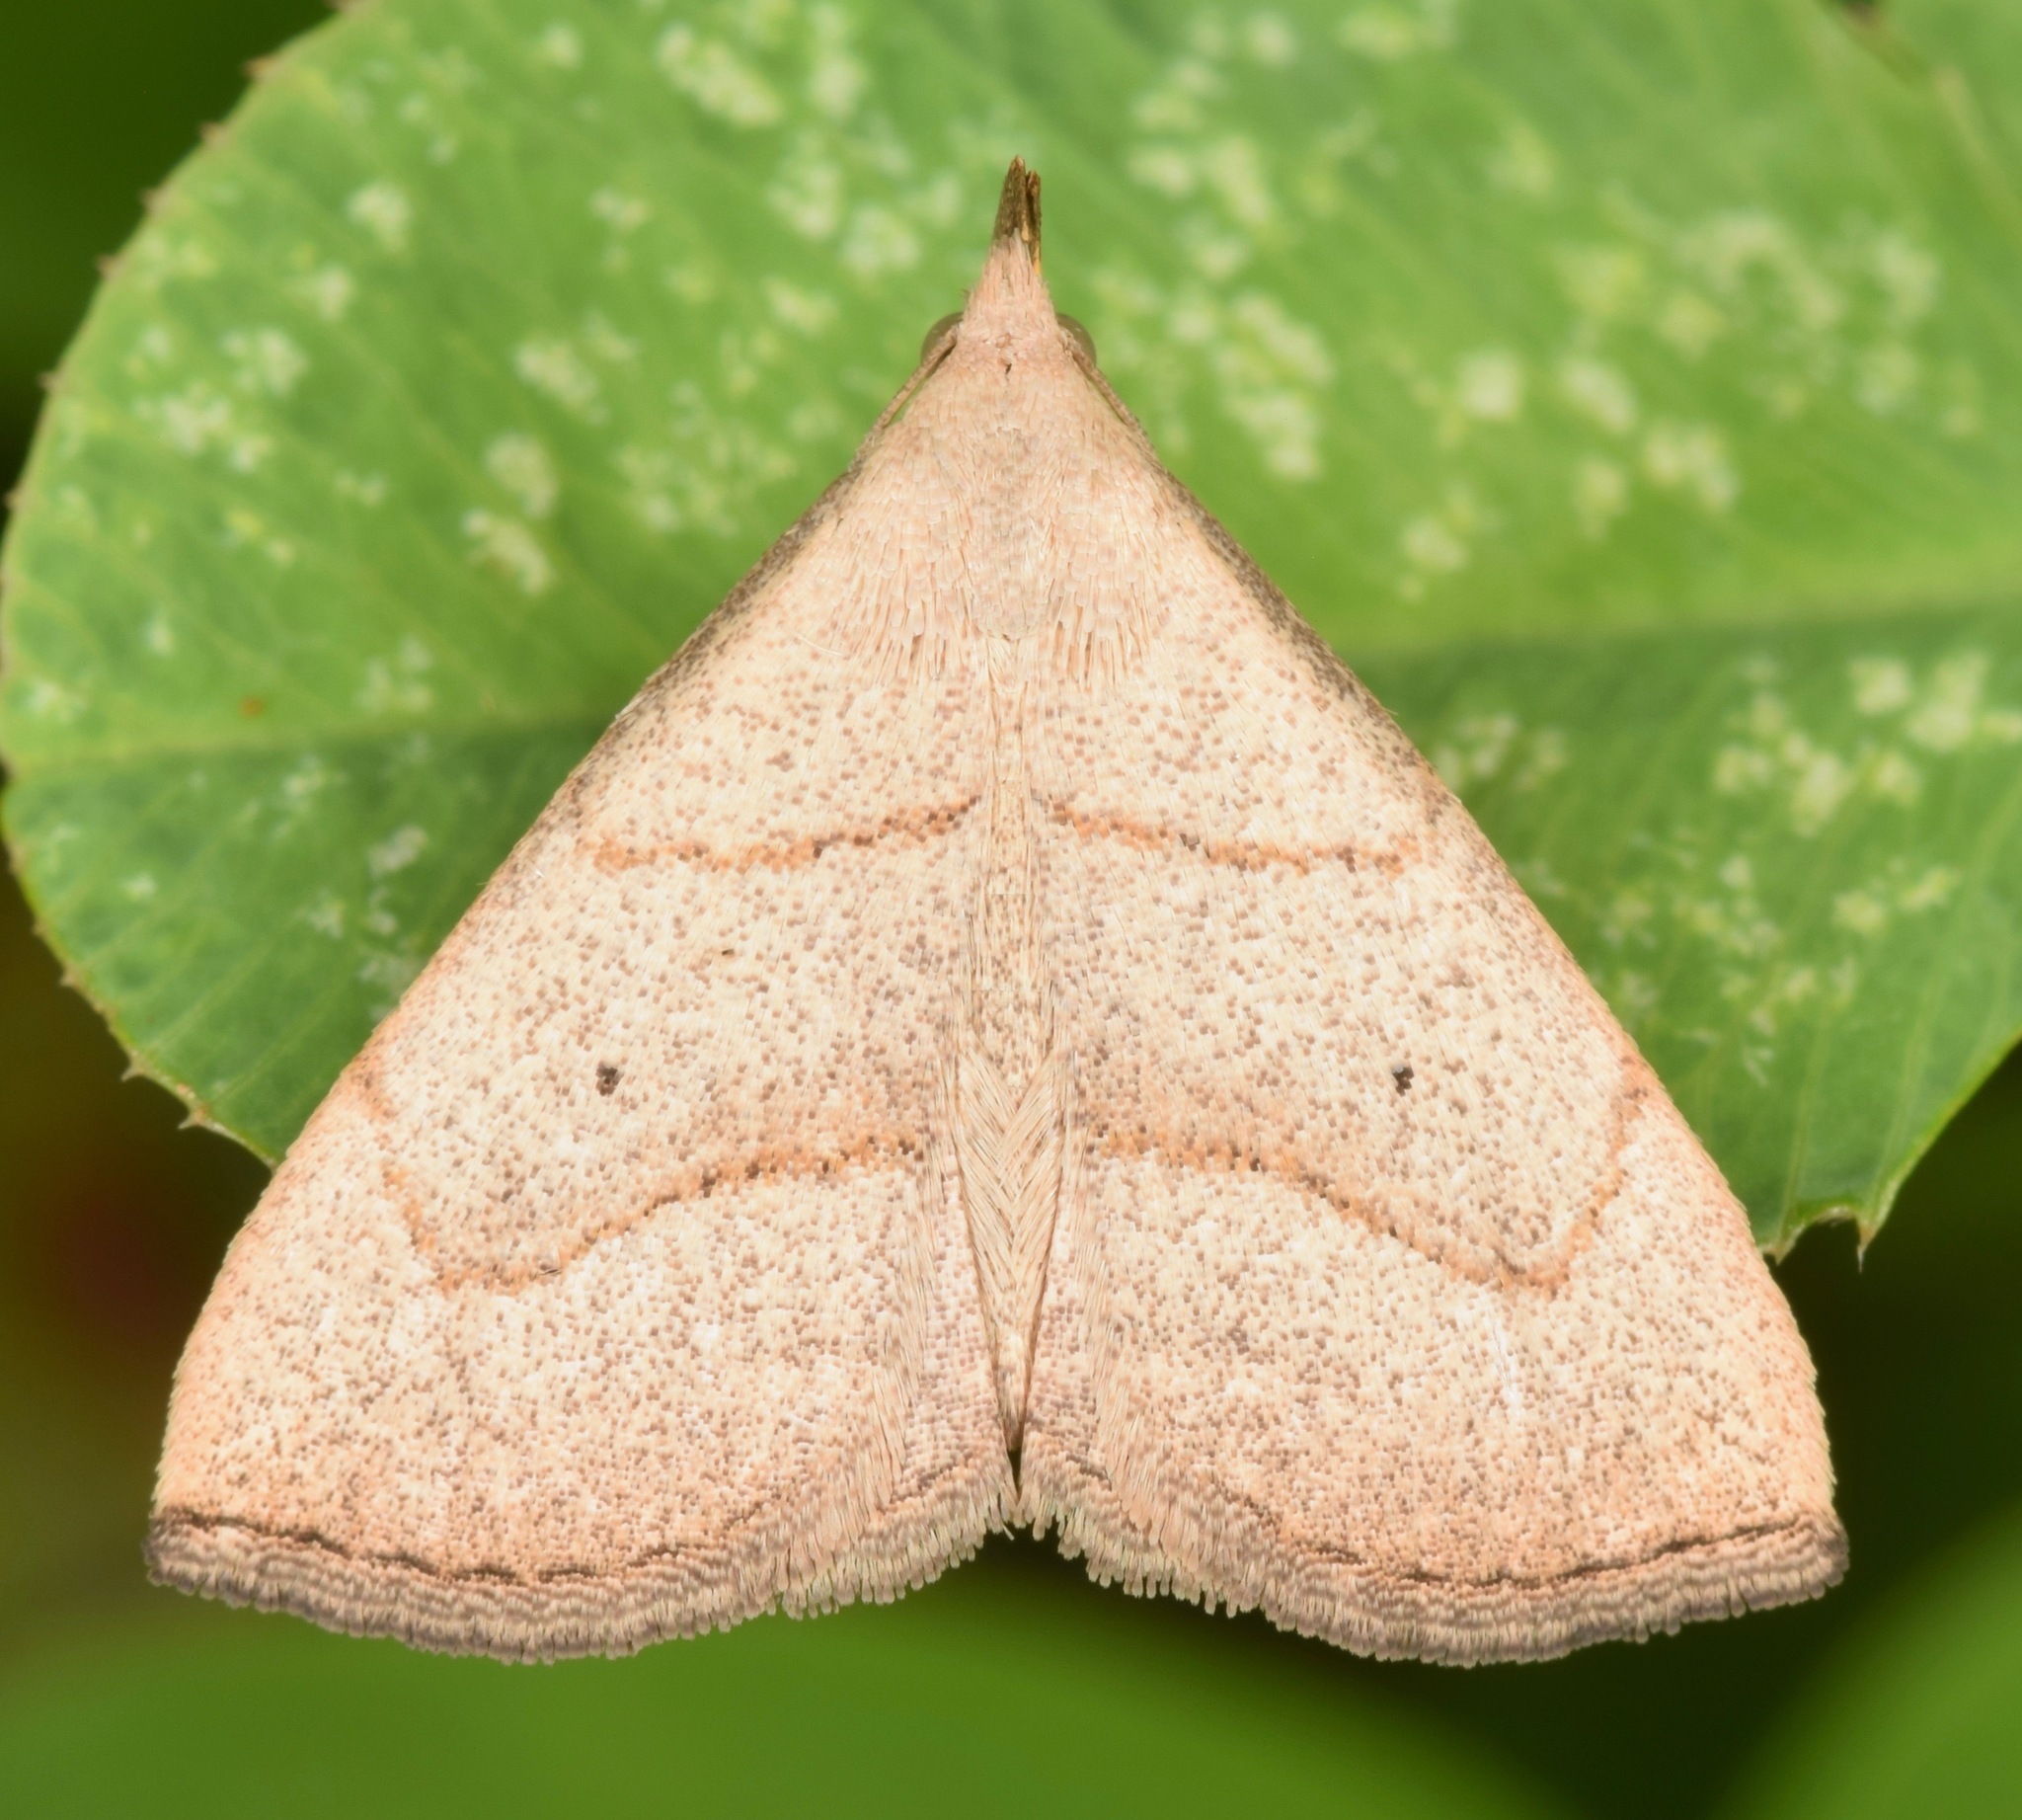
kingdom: Animalia
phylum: Arthropoda
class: Insecta
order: Lepidoptera
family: Erebidae
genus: Macrochilo
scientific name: Macrochilo litophora
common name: Brown-lined owlet
